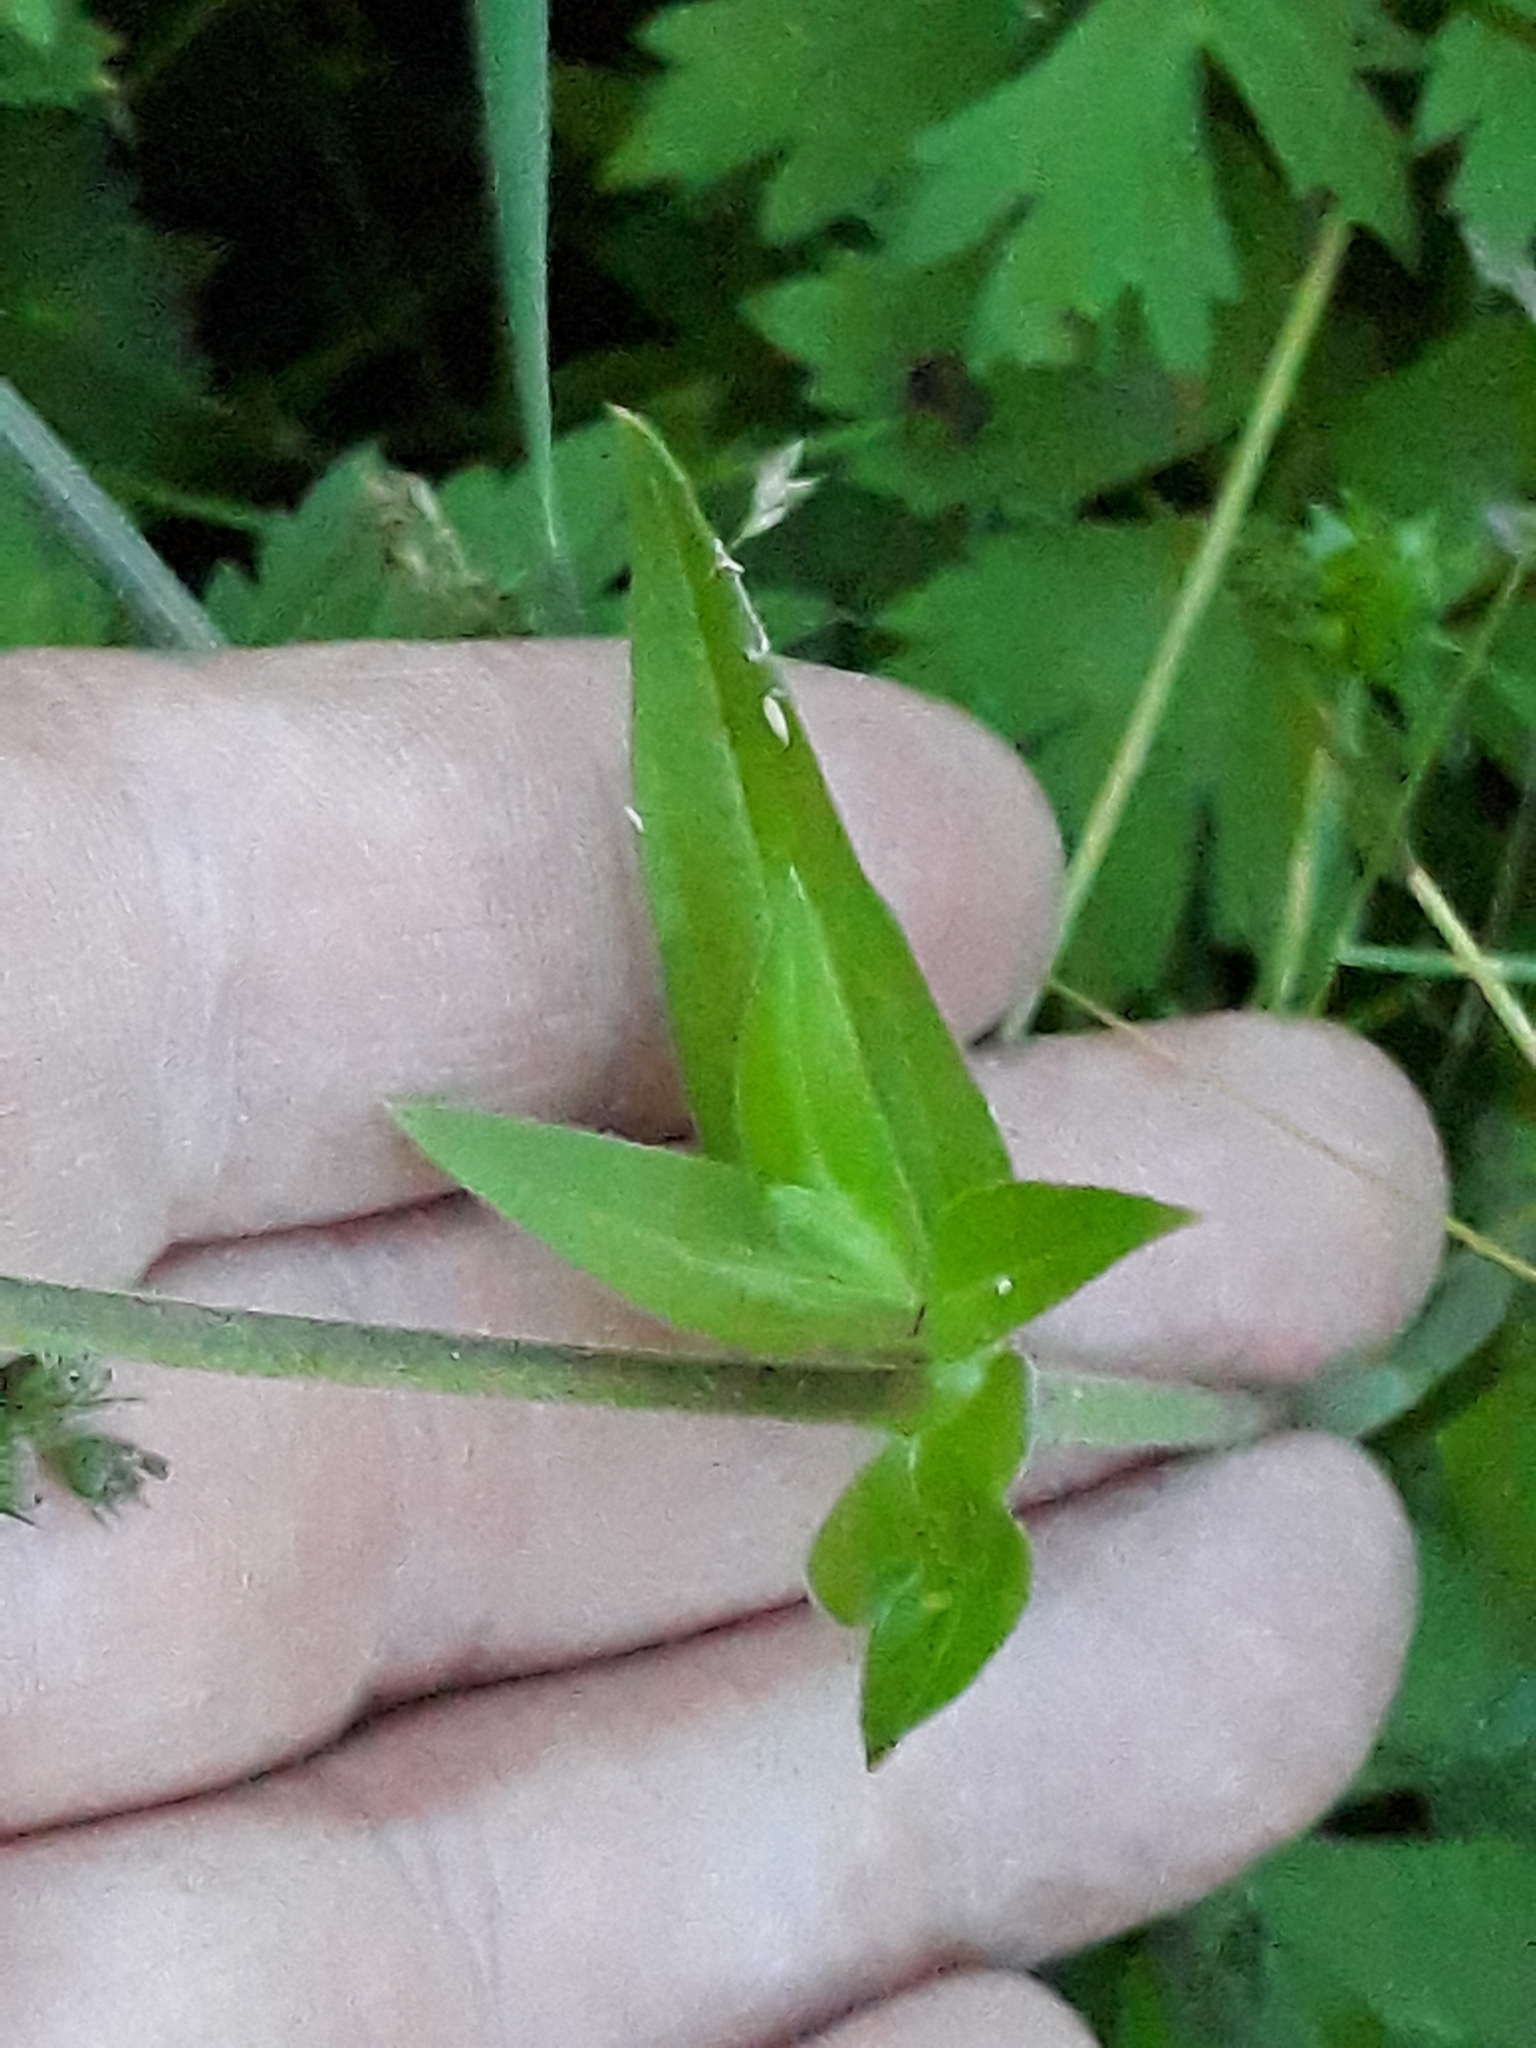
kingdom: Plantae
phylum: Tracheophyta
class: Magnoliopsida
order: Caryophyllales
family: Caryophyllaceae
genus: Silene
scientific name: Silene latifolia
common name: White campion
